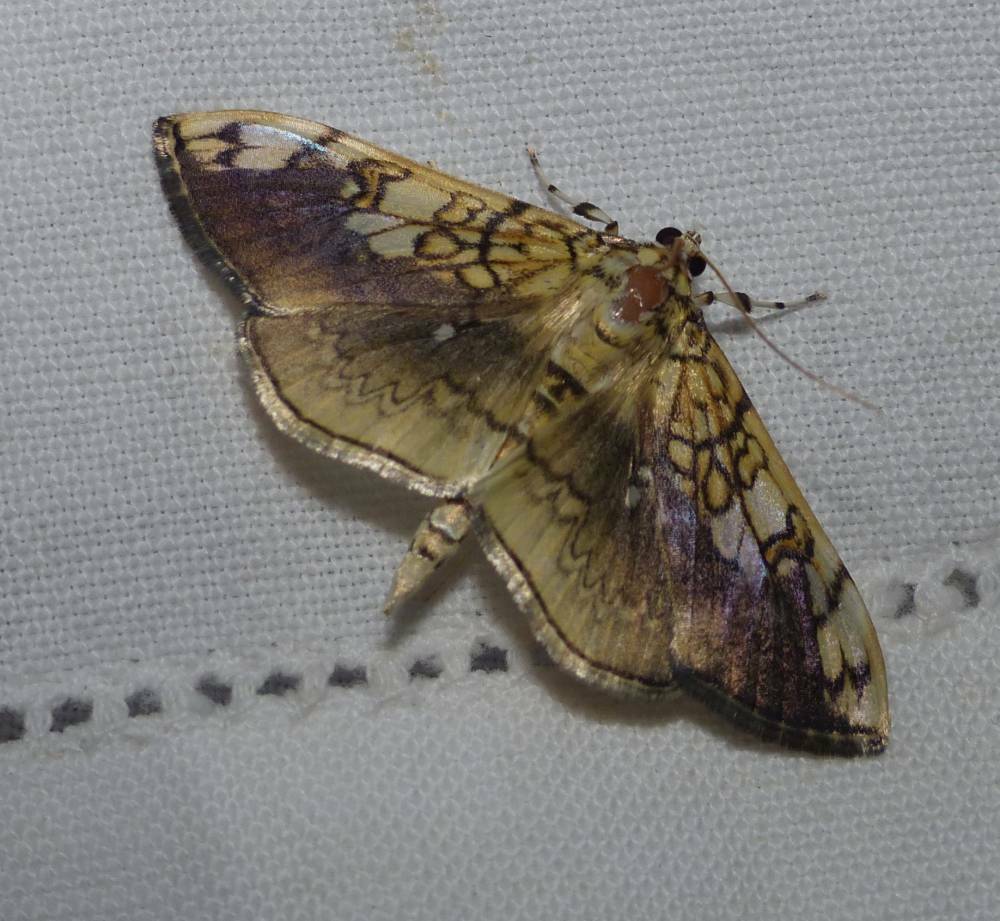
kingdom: Animalia
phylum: Arthropoda
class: Insecta
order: Lepidoptera
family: Crambidae
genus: Pantographa
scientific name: Pantographa limata
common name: Basswood leafroller moth
